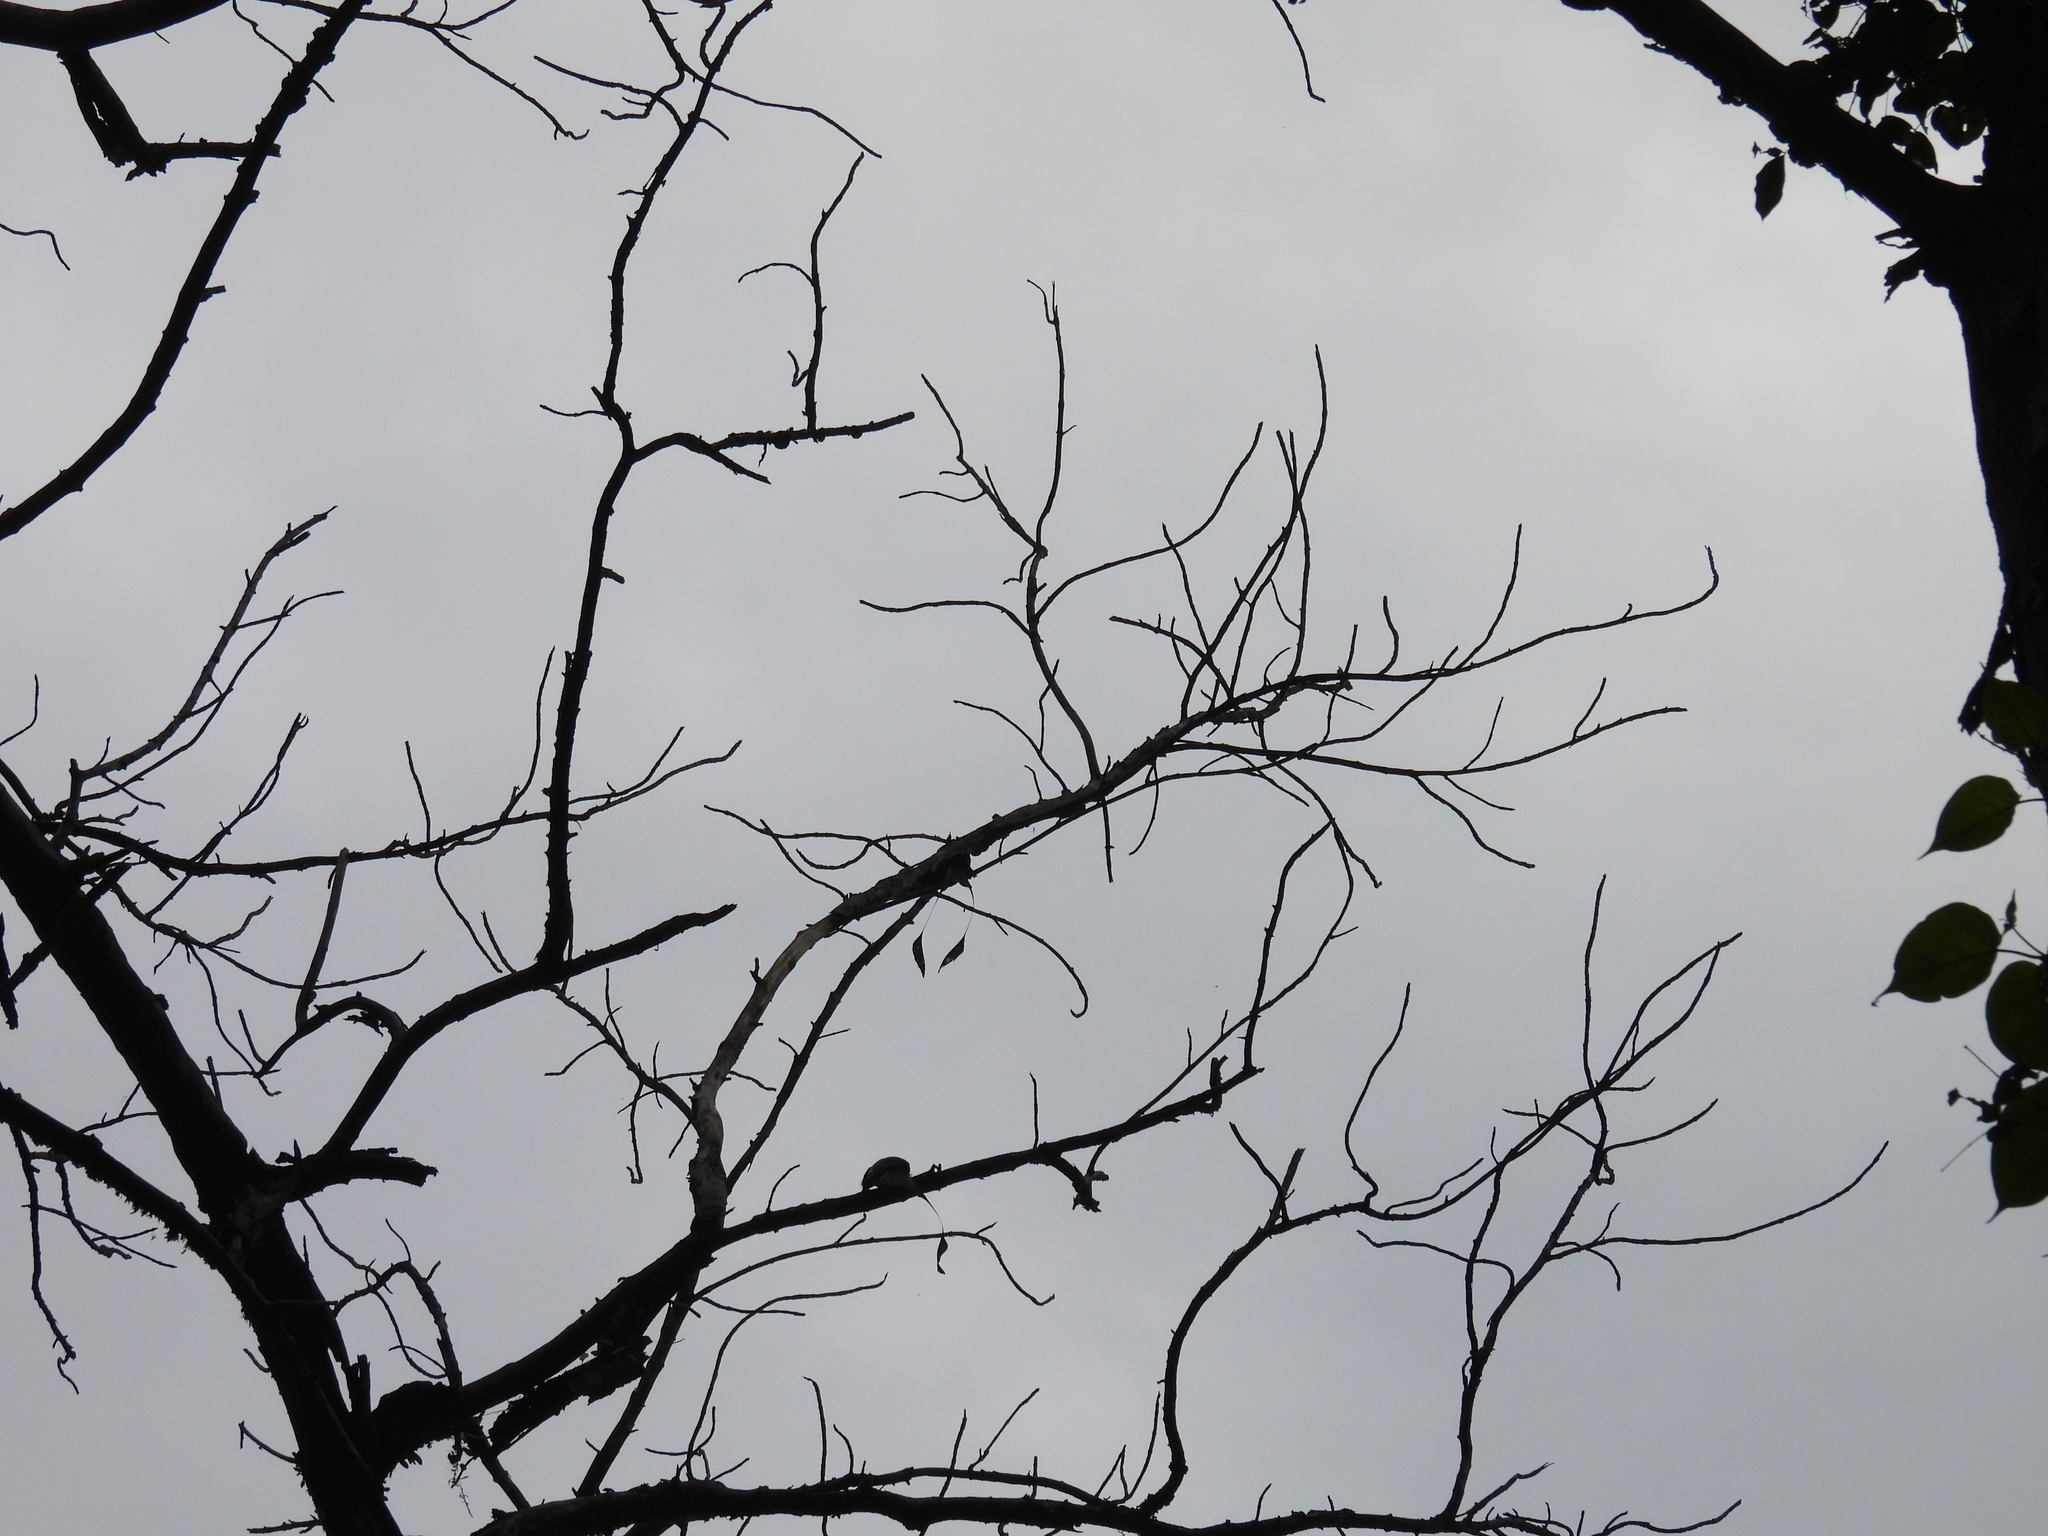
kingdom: Animalia
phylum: Chordata
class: Aves
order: Passeriformes
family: Dicruridae
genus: Dicrurus
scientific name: Dicrurus paradiseus
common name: Greater racket-tailed drongo
